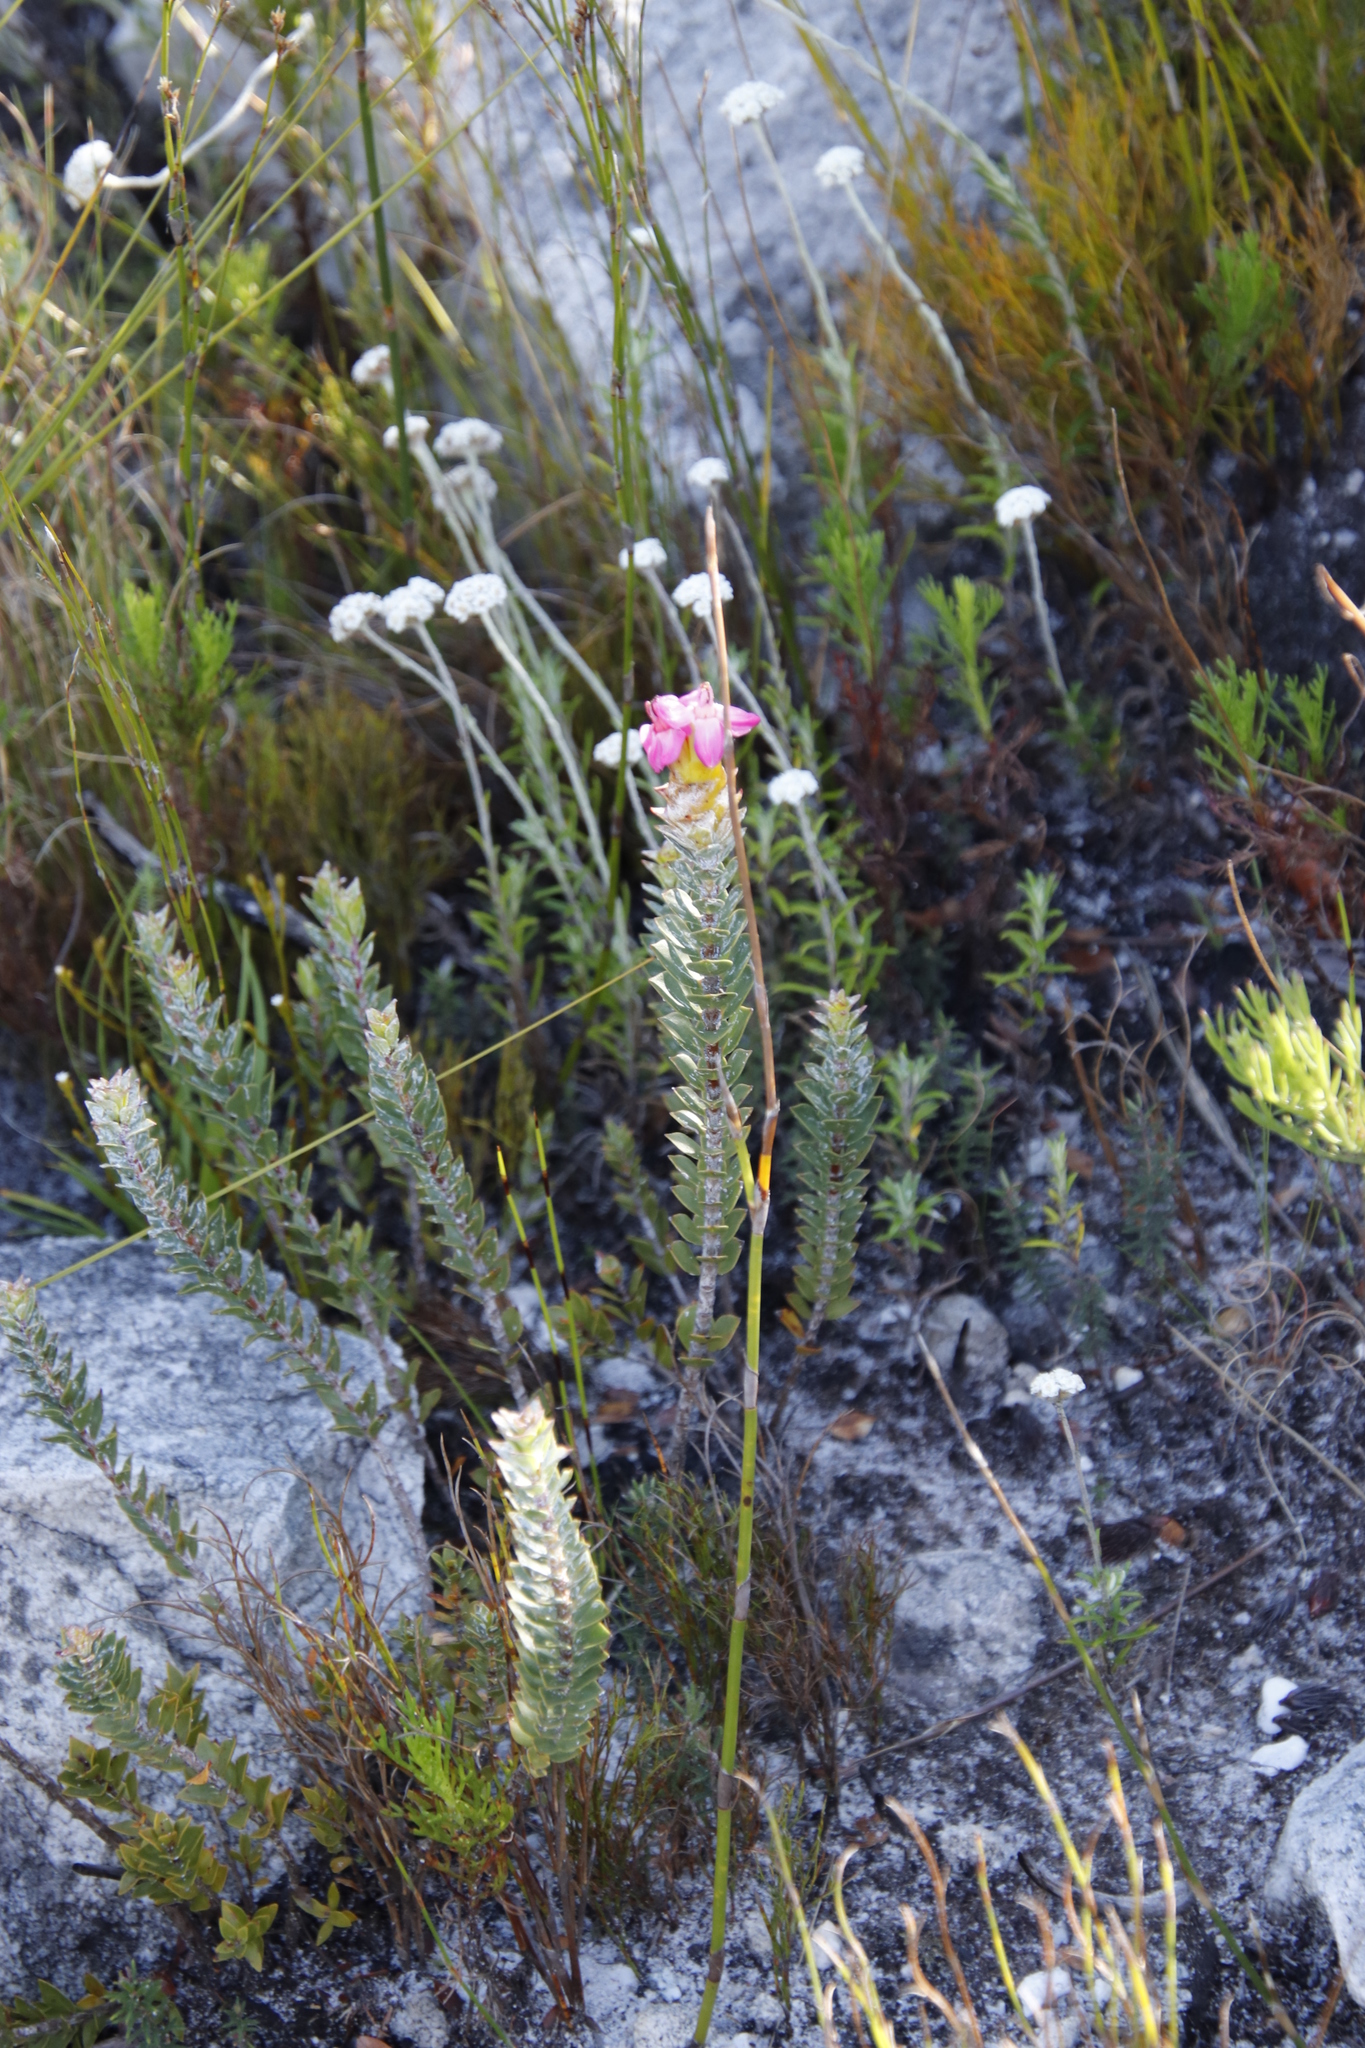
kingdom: Plantae
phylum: Tracheophyta
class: Magnoliopsida
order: Myrtales
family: Penaeaceae
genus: Saltera
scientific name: Saltera sarcocolla
